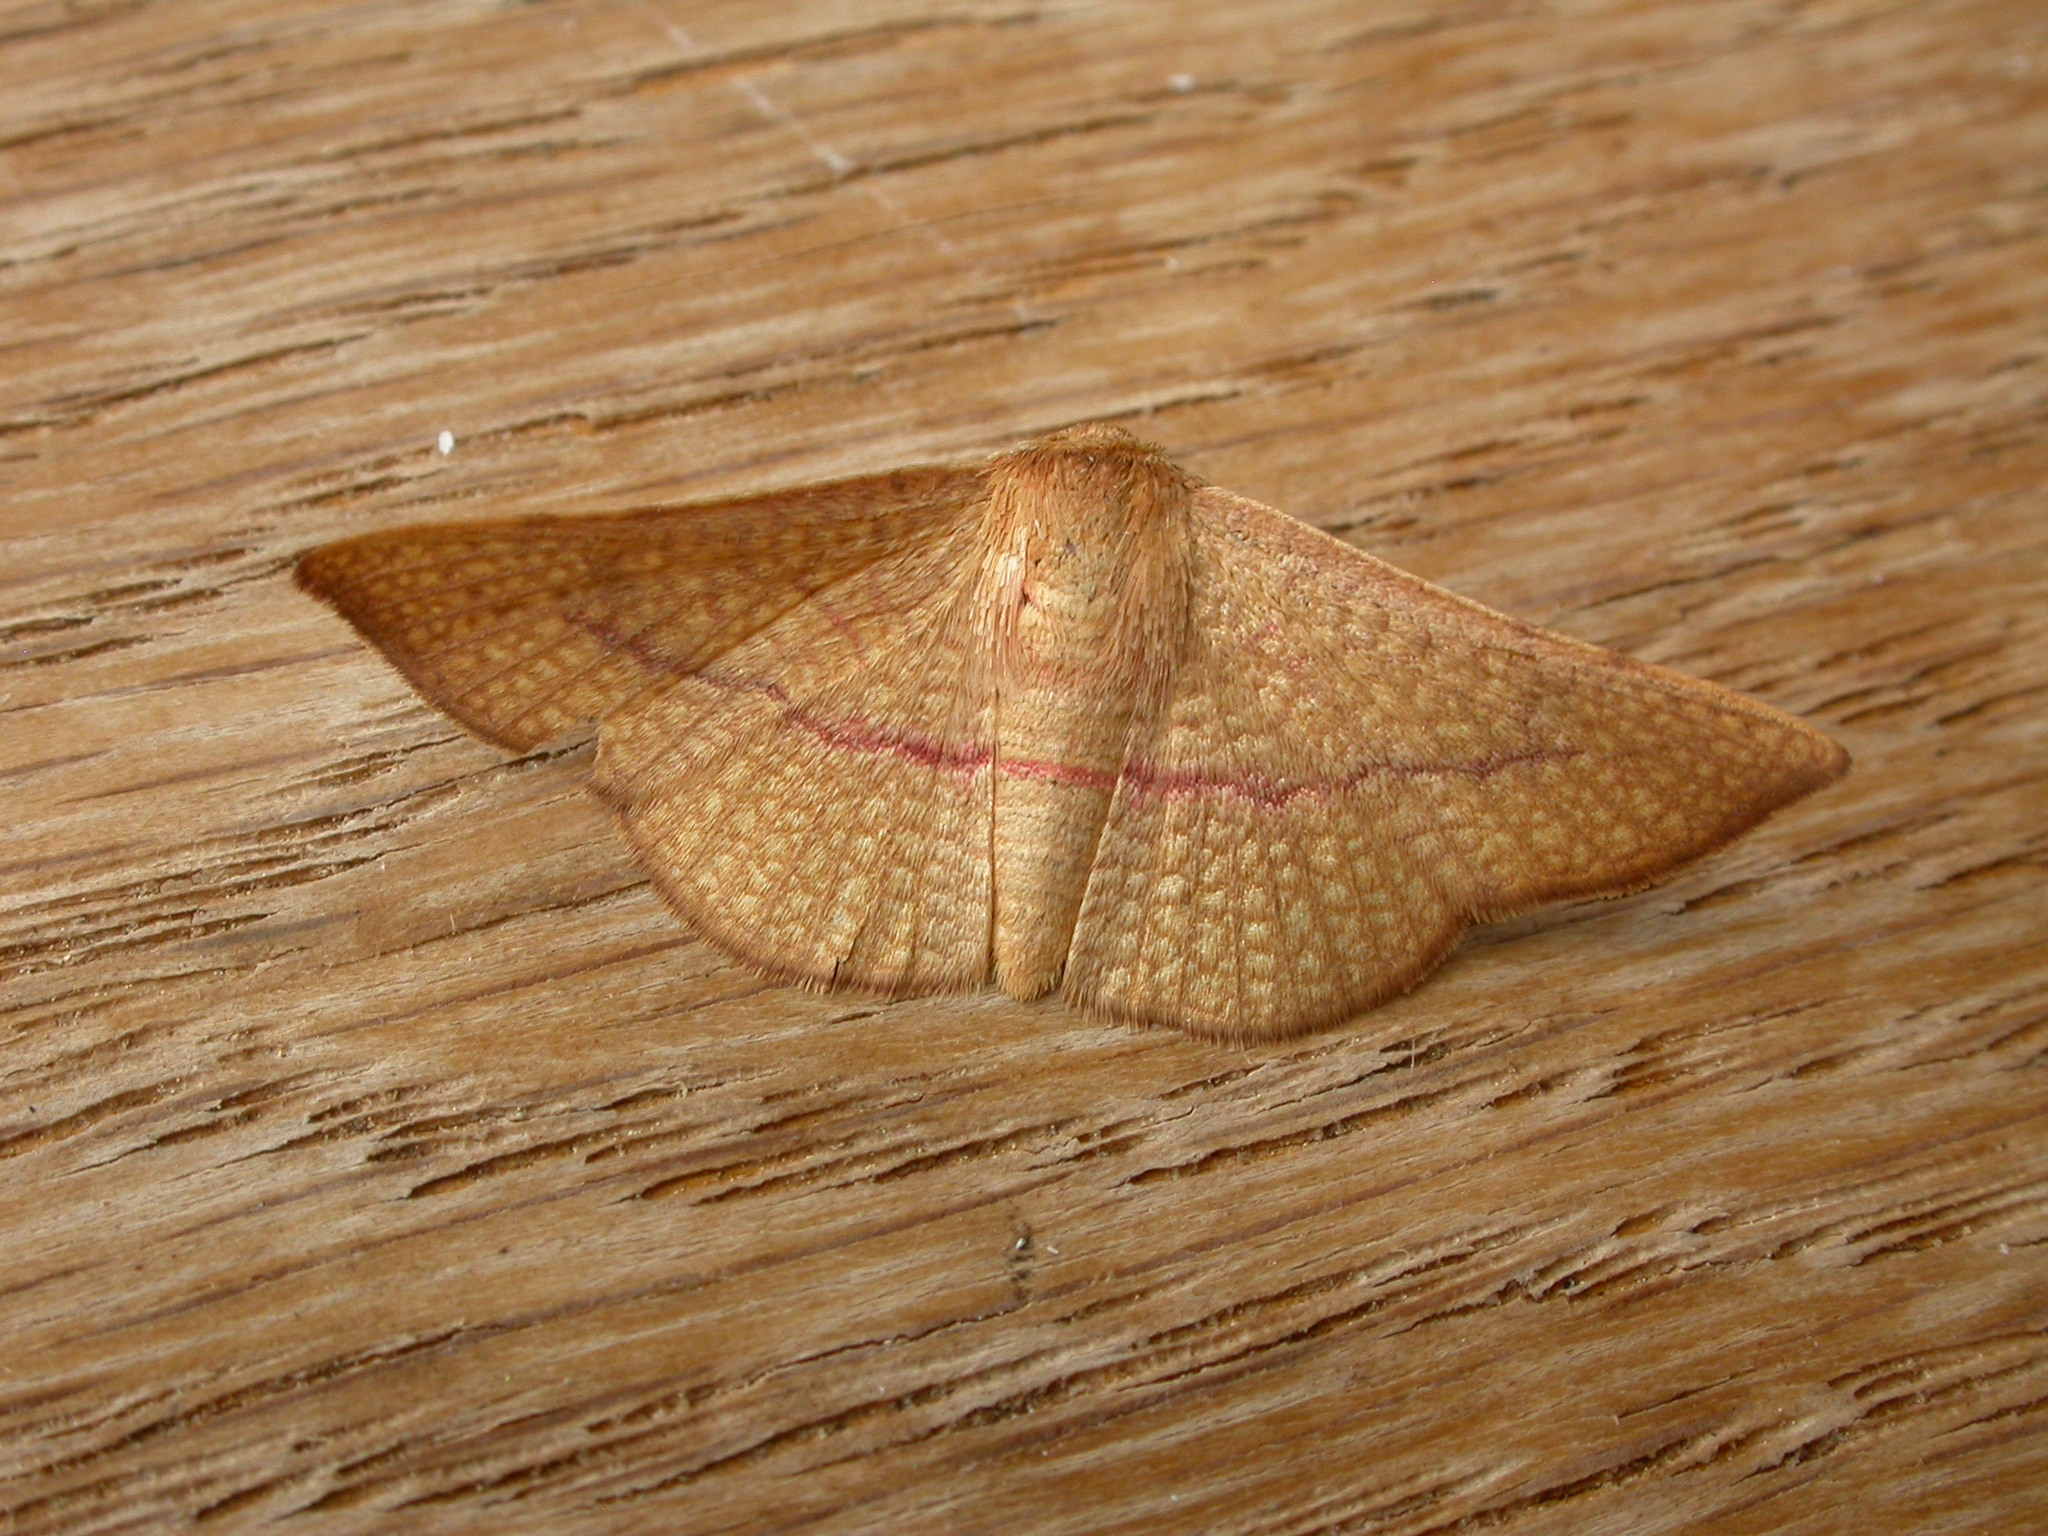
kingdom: Animalia
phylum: Arthropoda
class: Insecta
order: Lepidoptera
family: Thyrididae
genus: Aglaopus
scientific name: Aglaopus pyrrhata
